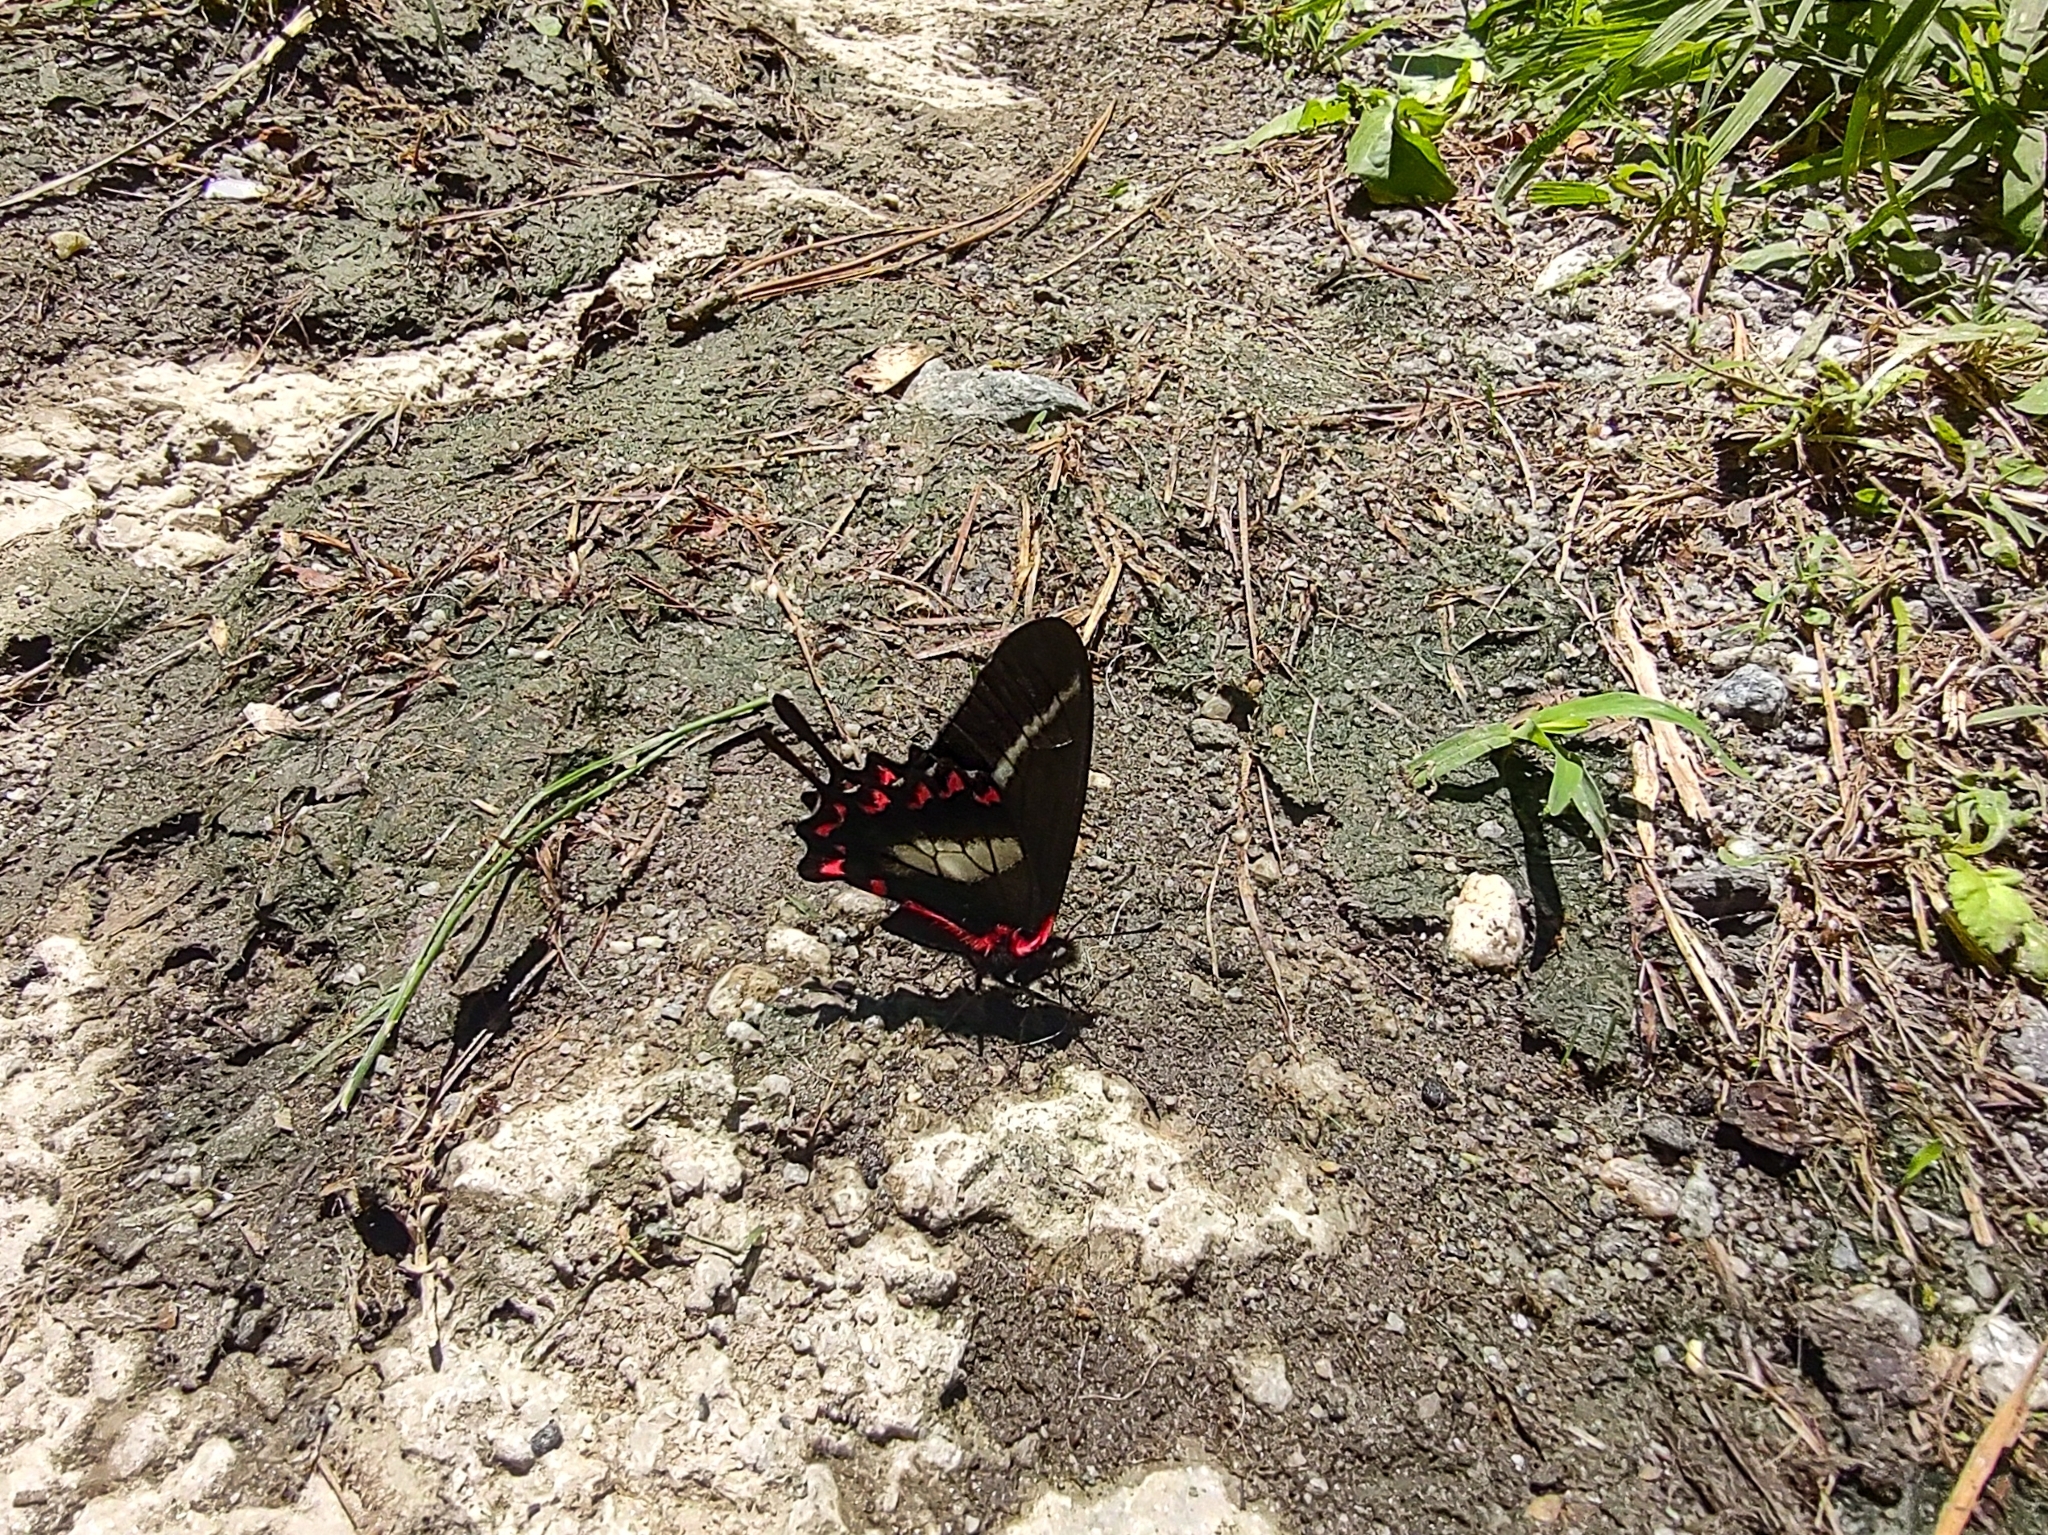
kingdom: Animalia
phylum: Arthropoda
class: Insecta
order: Lepidoptera
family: Papilionidae
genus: Mimoides
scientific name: Mimoides lysithous
